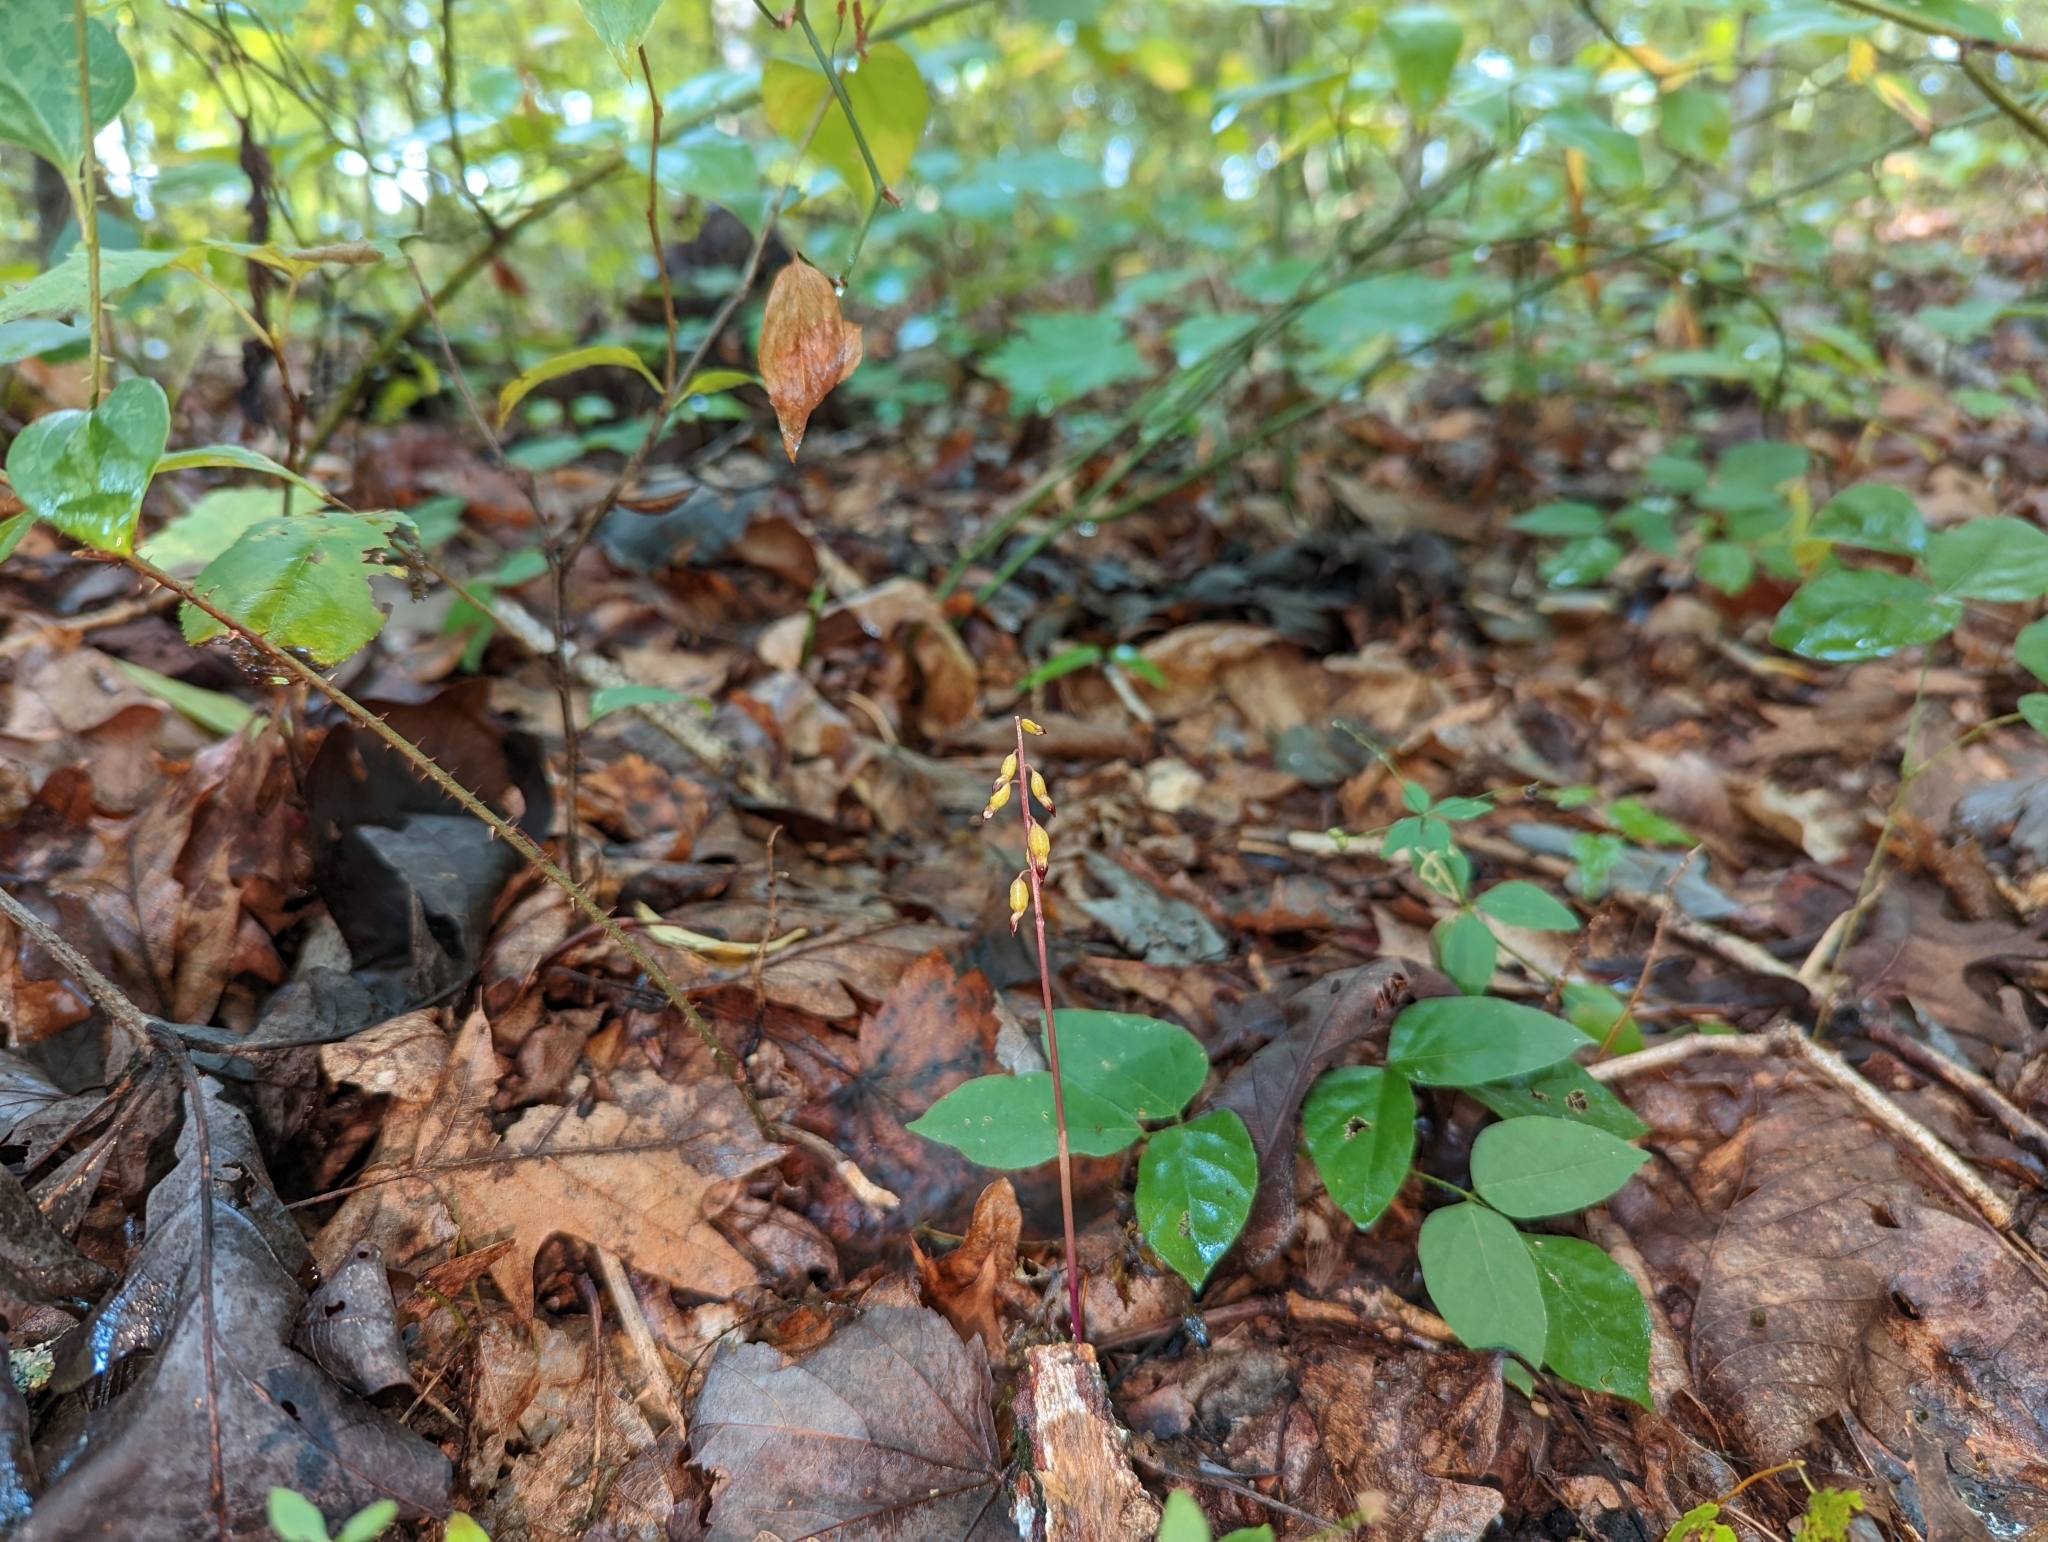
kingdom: Plantae
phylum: Tracheophyta
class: Liliopsida
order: Asparagales
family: Orchidaceae
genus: Corallorhiza
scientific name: Corallorhiza odontorhiza
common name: Autumn coralroot
